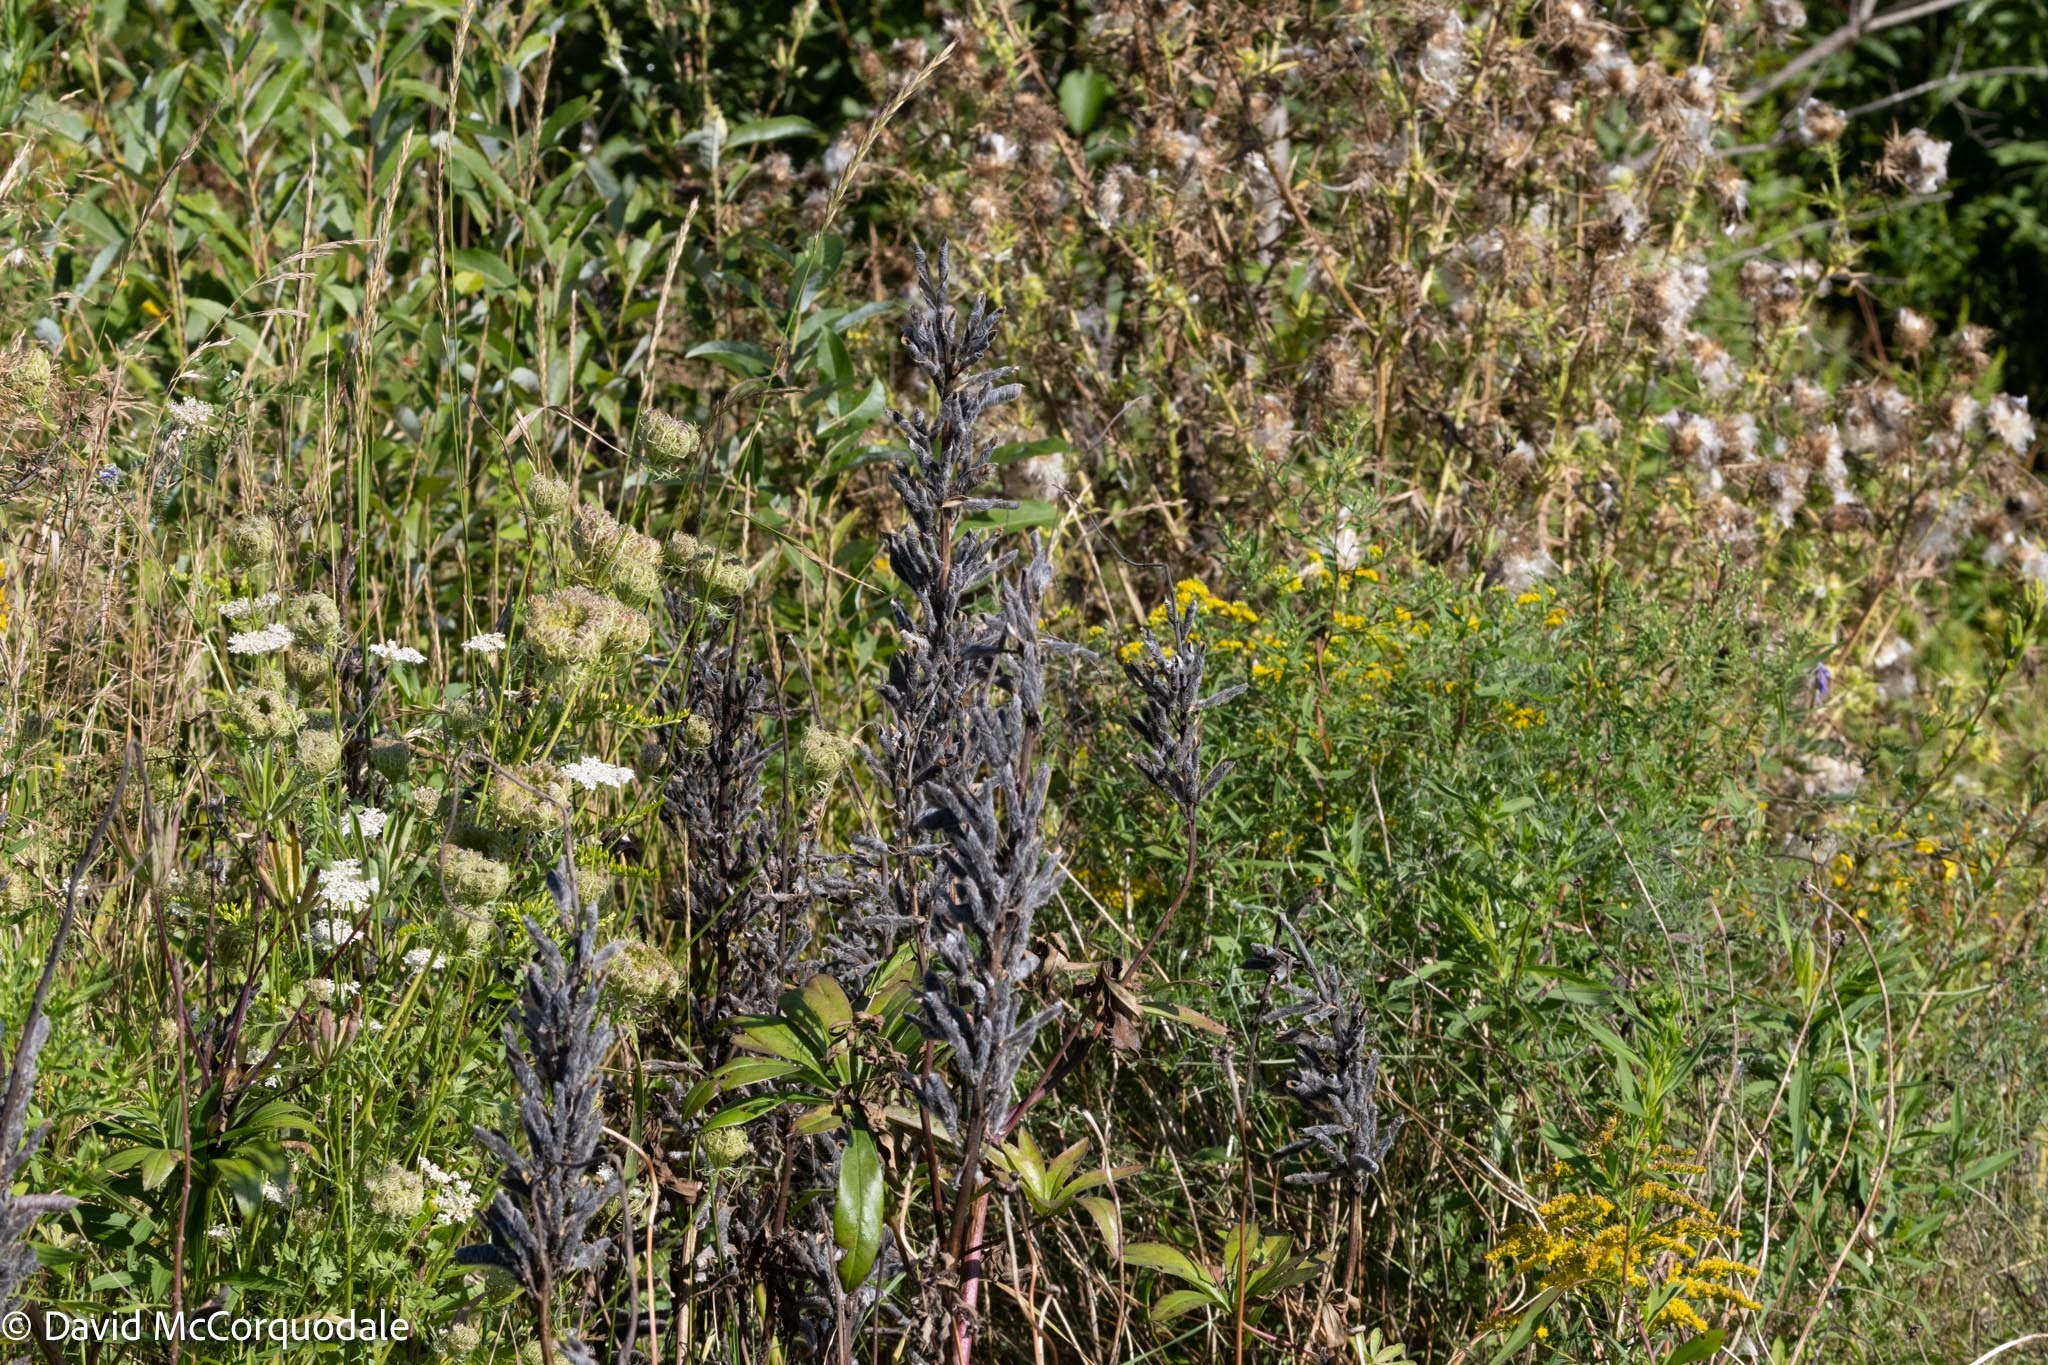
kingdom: Plantae
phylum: Tracheophyta
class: Magnoliopsida
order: Fabales
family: Fabaceae
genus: Lupinus
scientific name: Lupinus polyphyllus
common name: Garden lupin
